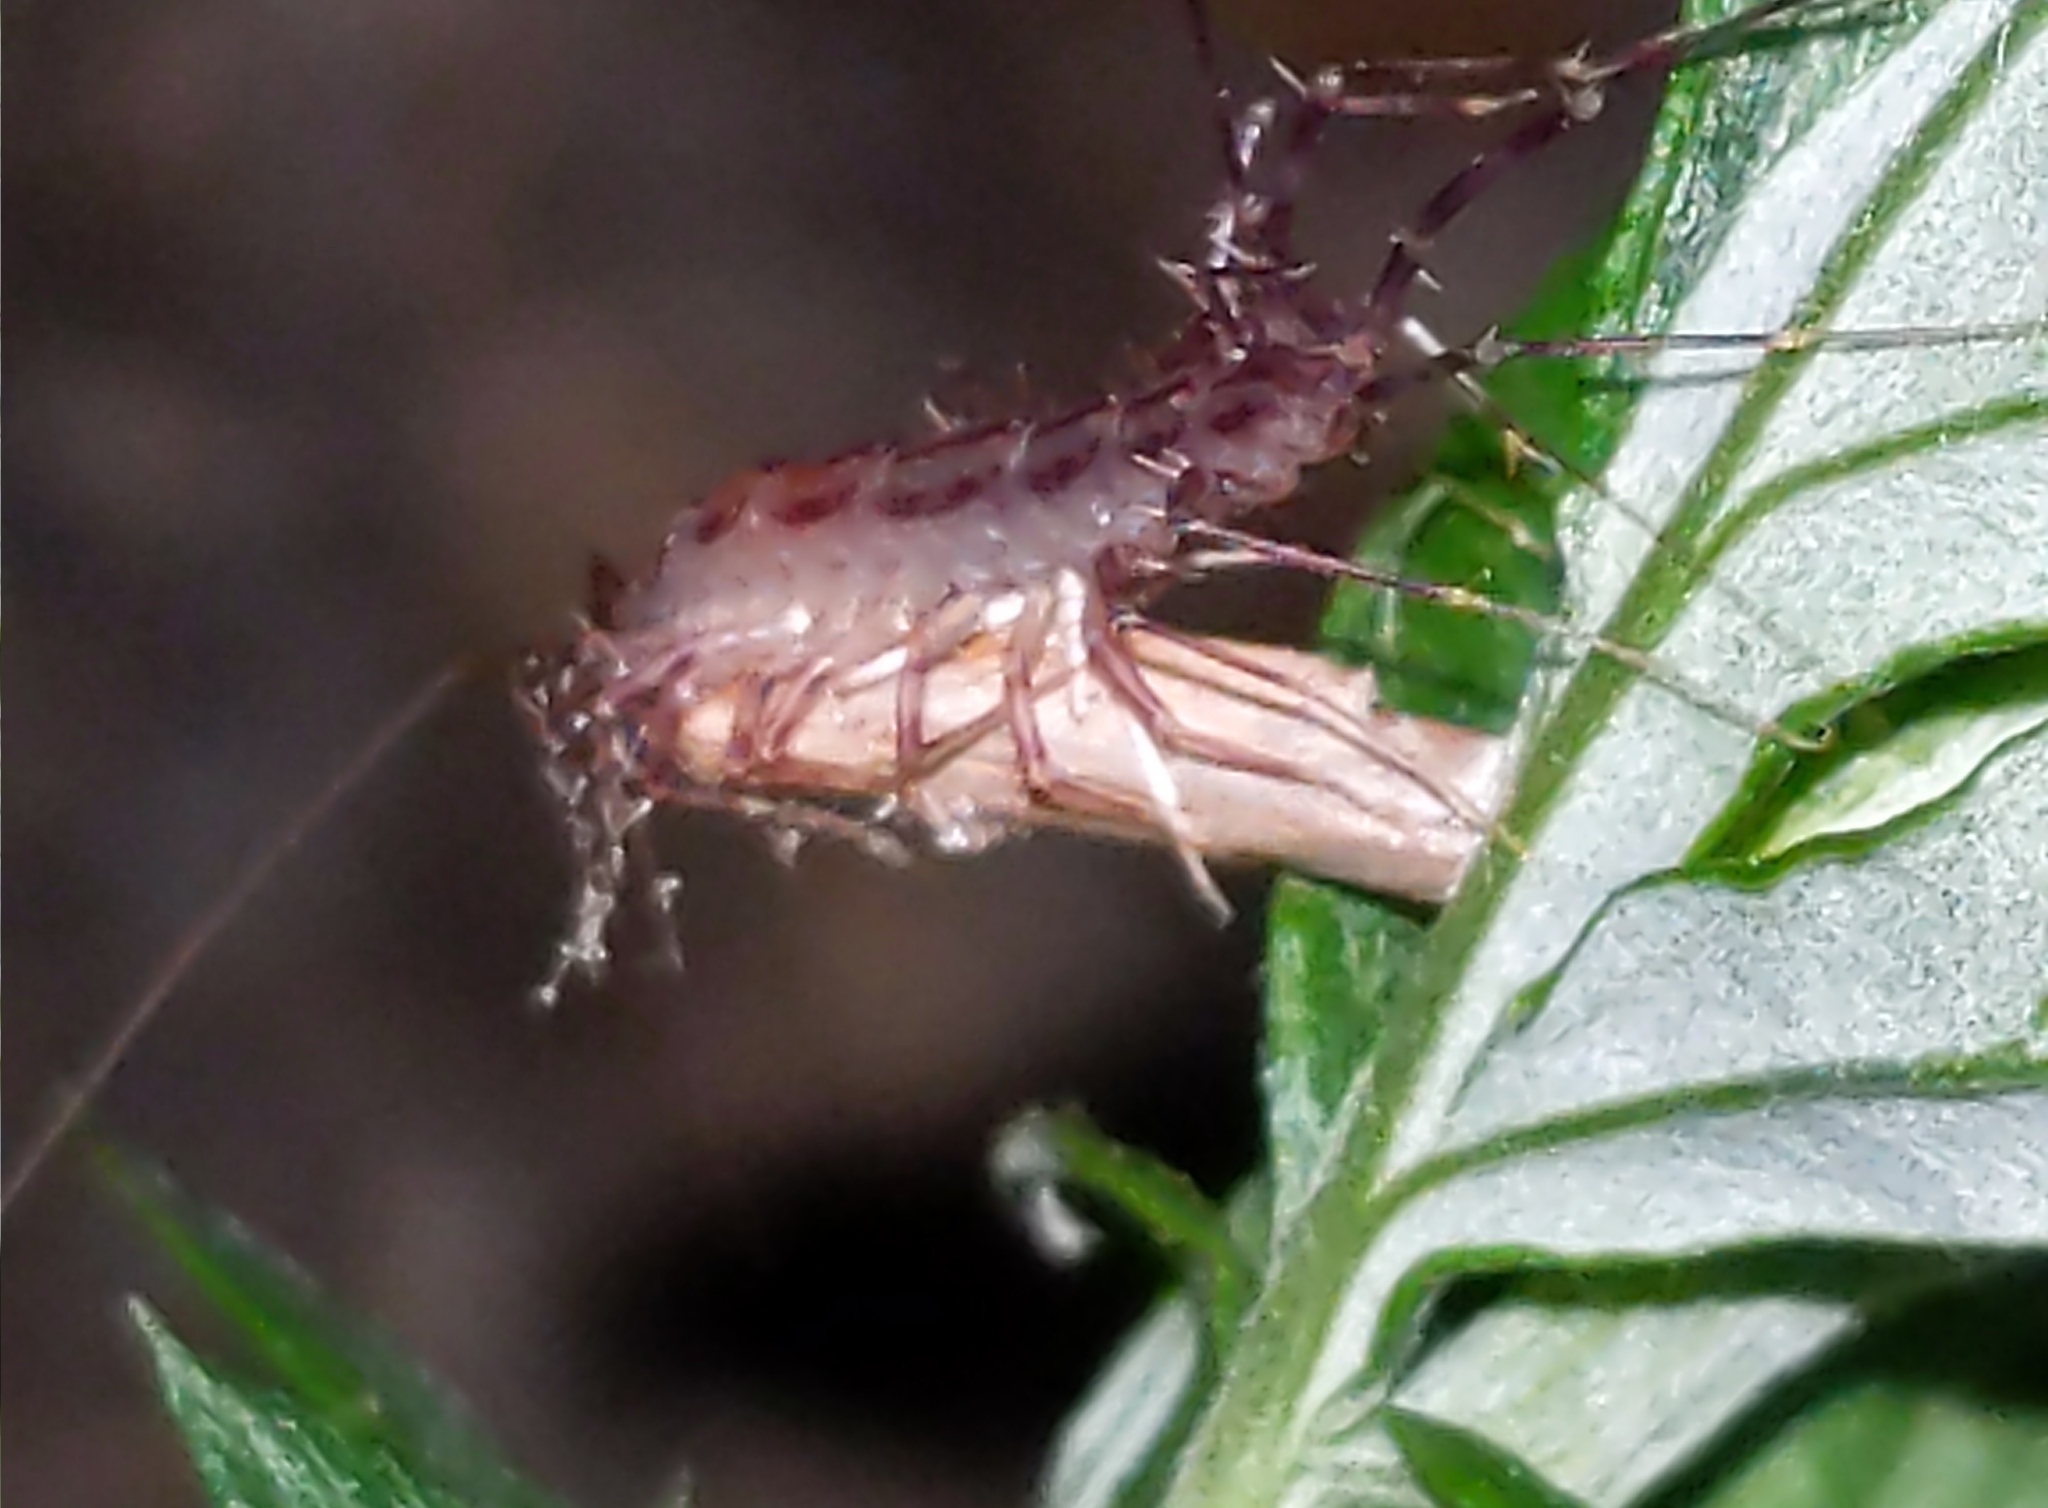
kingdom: Animalia
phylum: Arthropoda
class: Chilopoda
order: Scutigeromorpha
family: Scutigeridae
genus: Scutigera
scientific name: Scutigera coleoptrata
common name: House centipede
